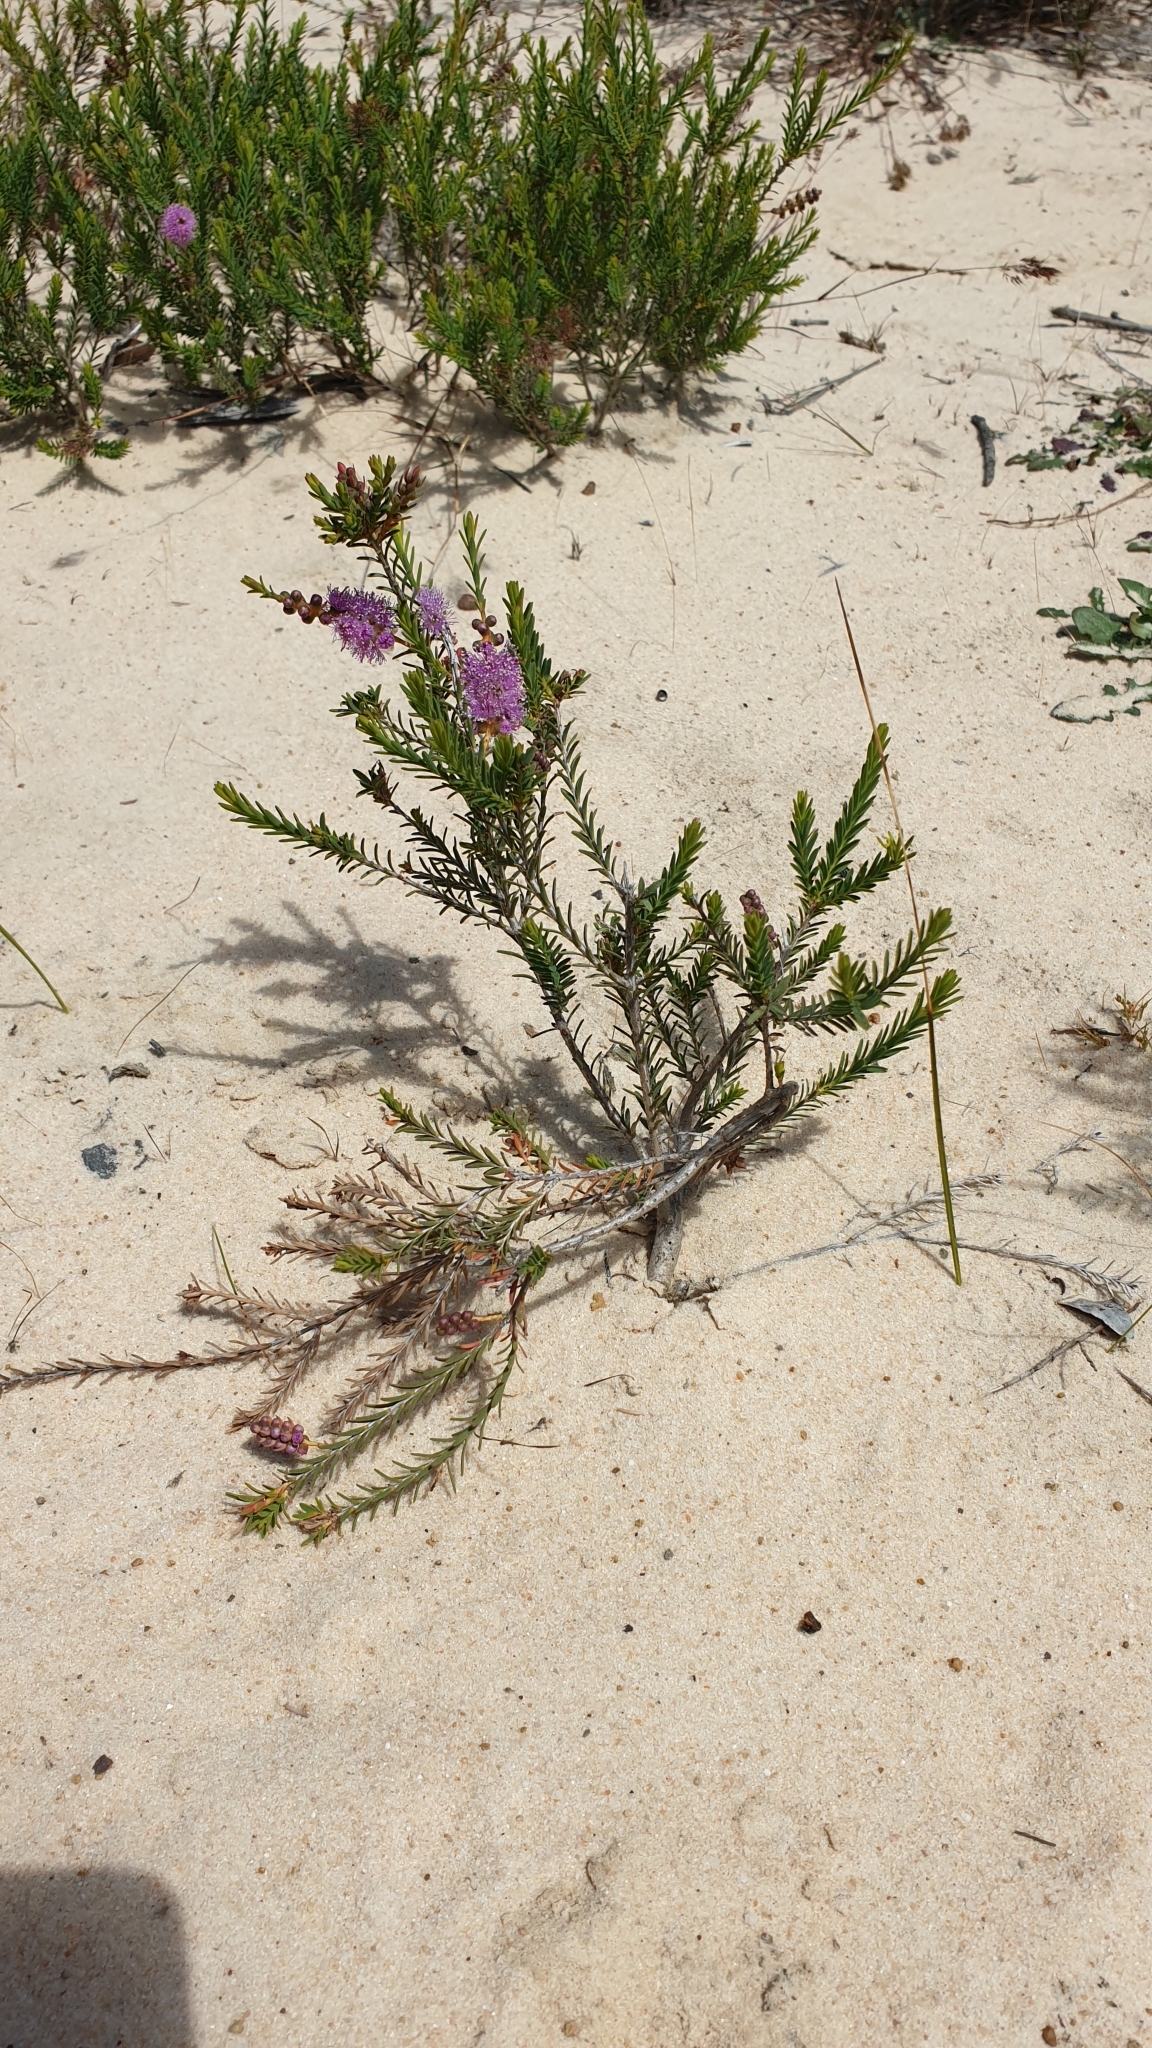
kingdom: Plantae
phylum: Tracheophyta
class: Magnoliopsida
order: Myrtales
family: Myrtaceae
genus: Melaleuca
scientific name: Melaleuca gibbosa
